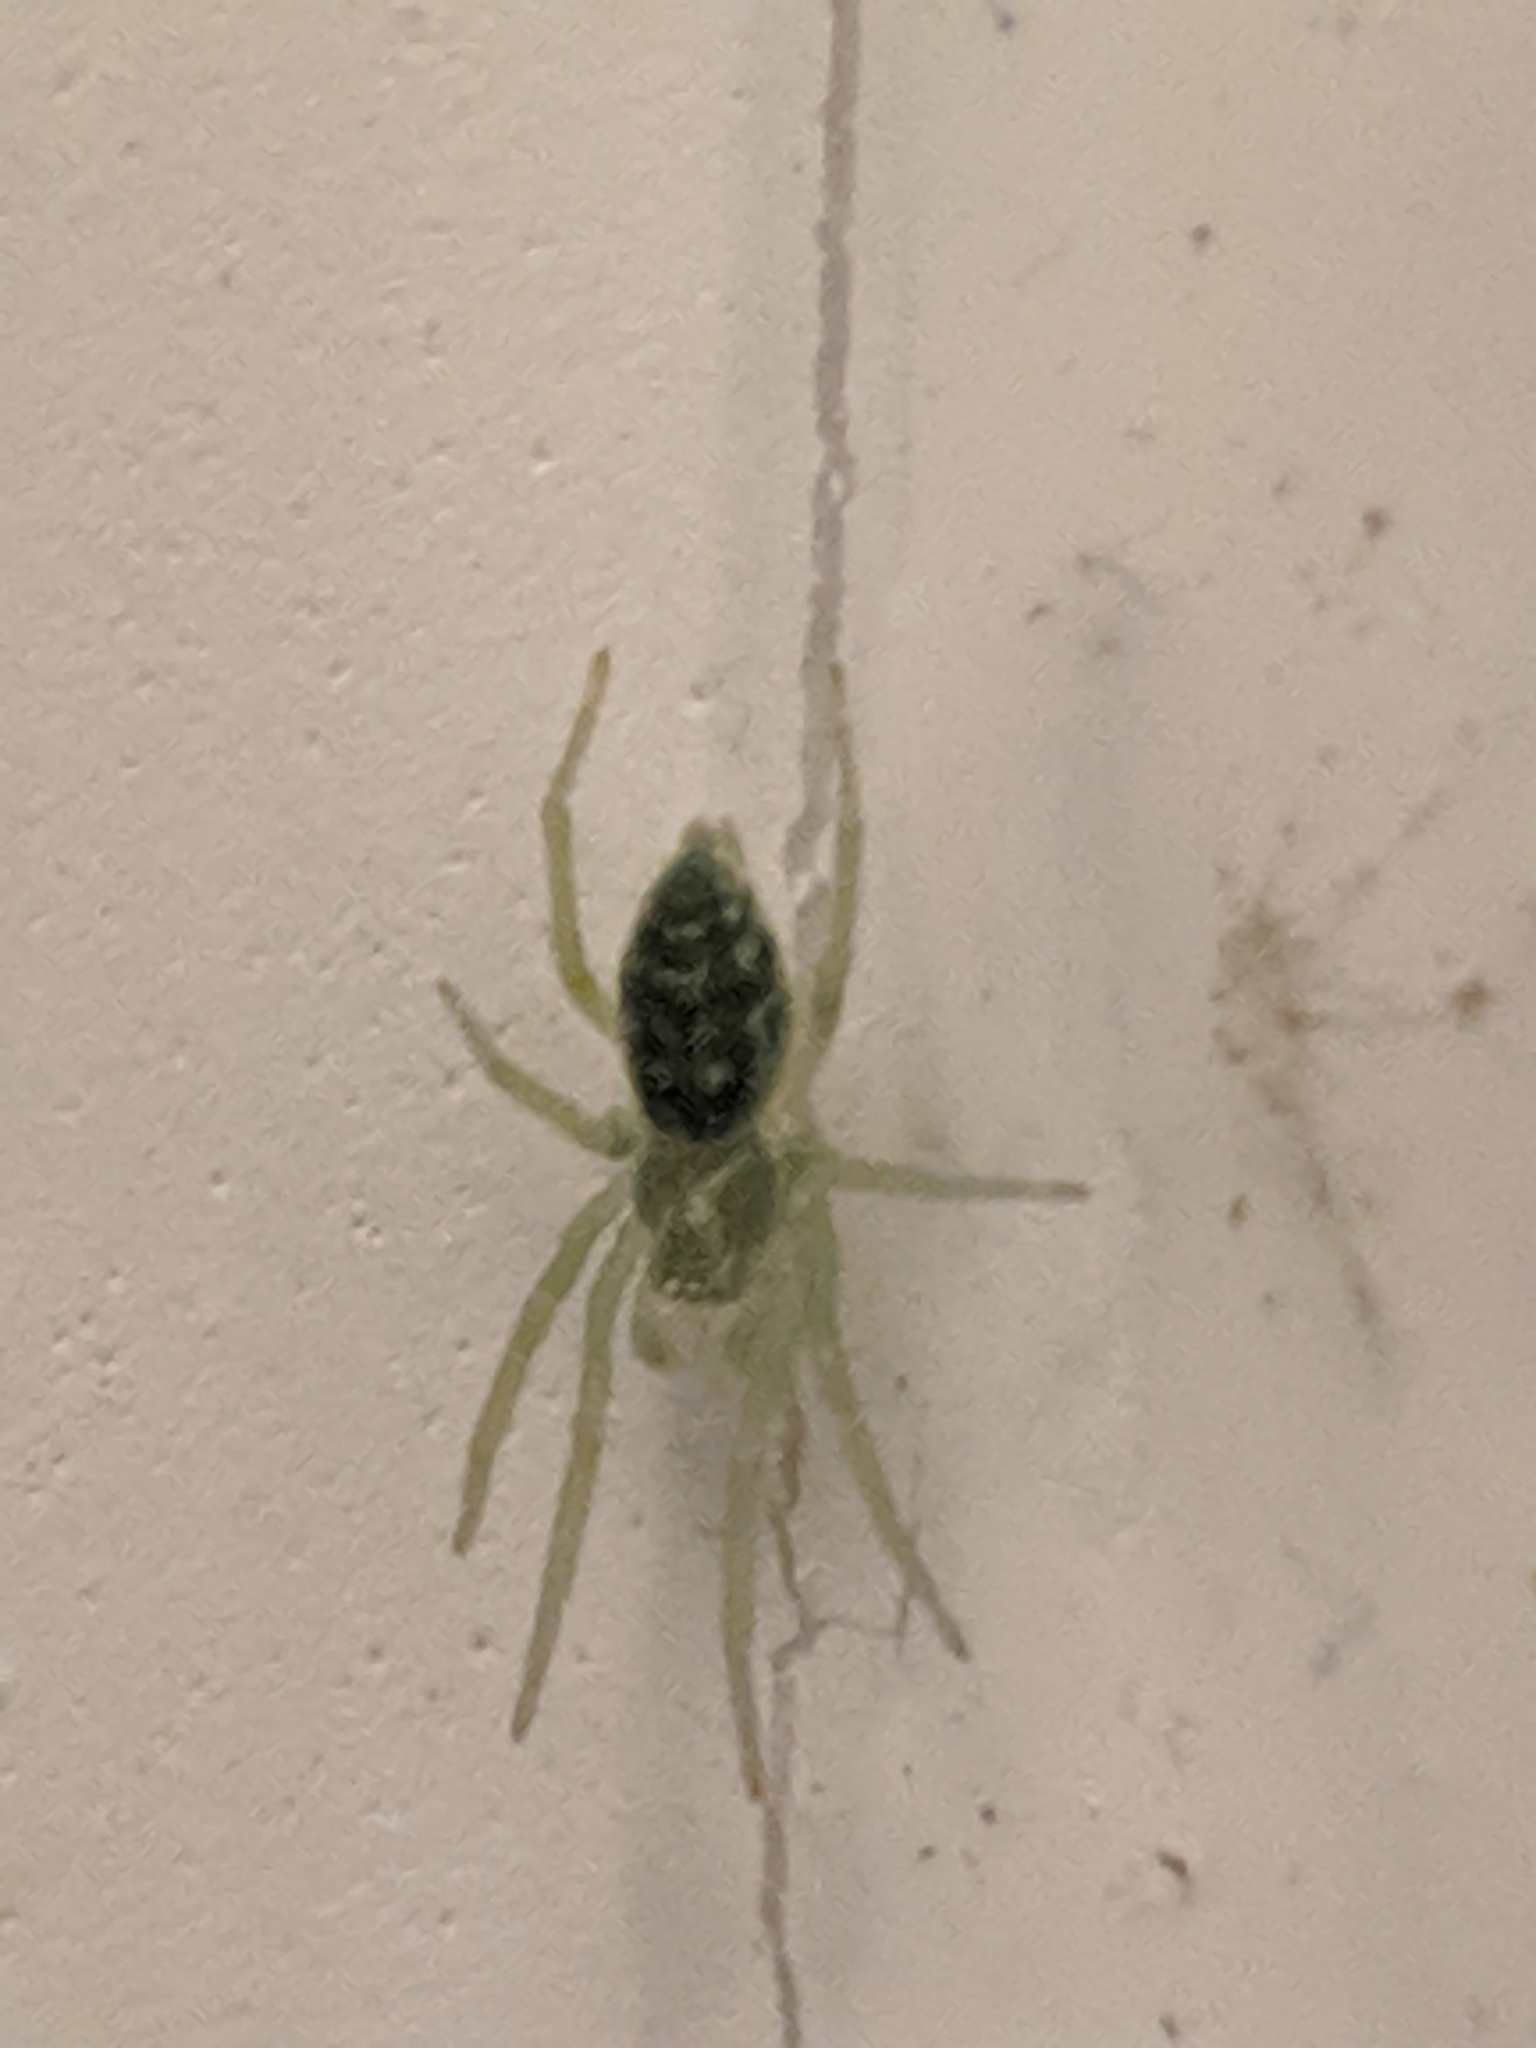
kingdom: Animalia
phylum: Arthropoda
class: Arachnida
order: Araneae
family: Dictynidae
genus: Nigma
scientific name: Nigma walckenaeri
